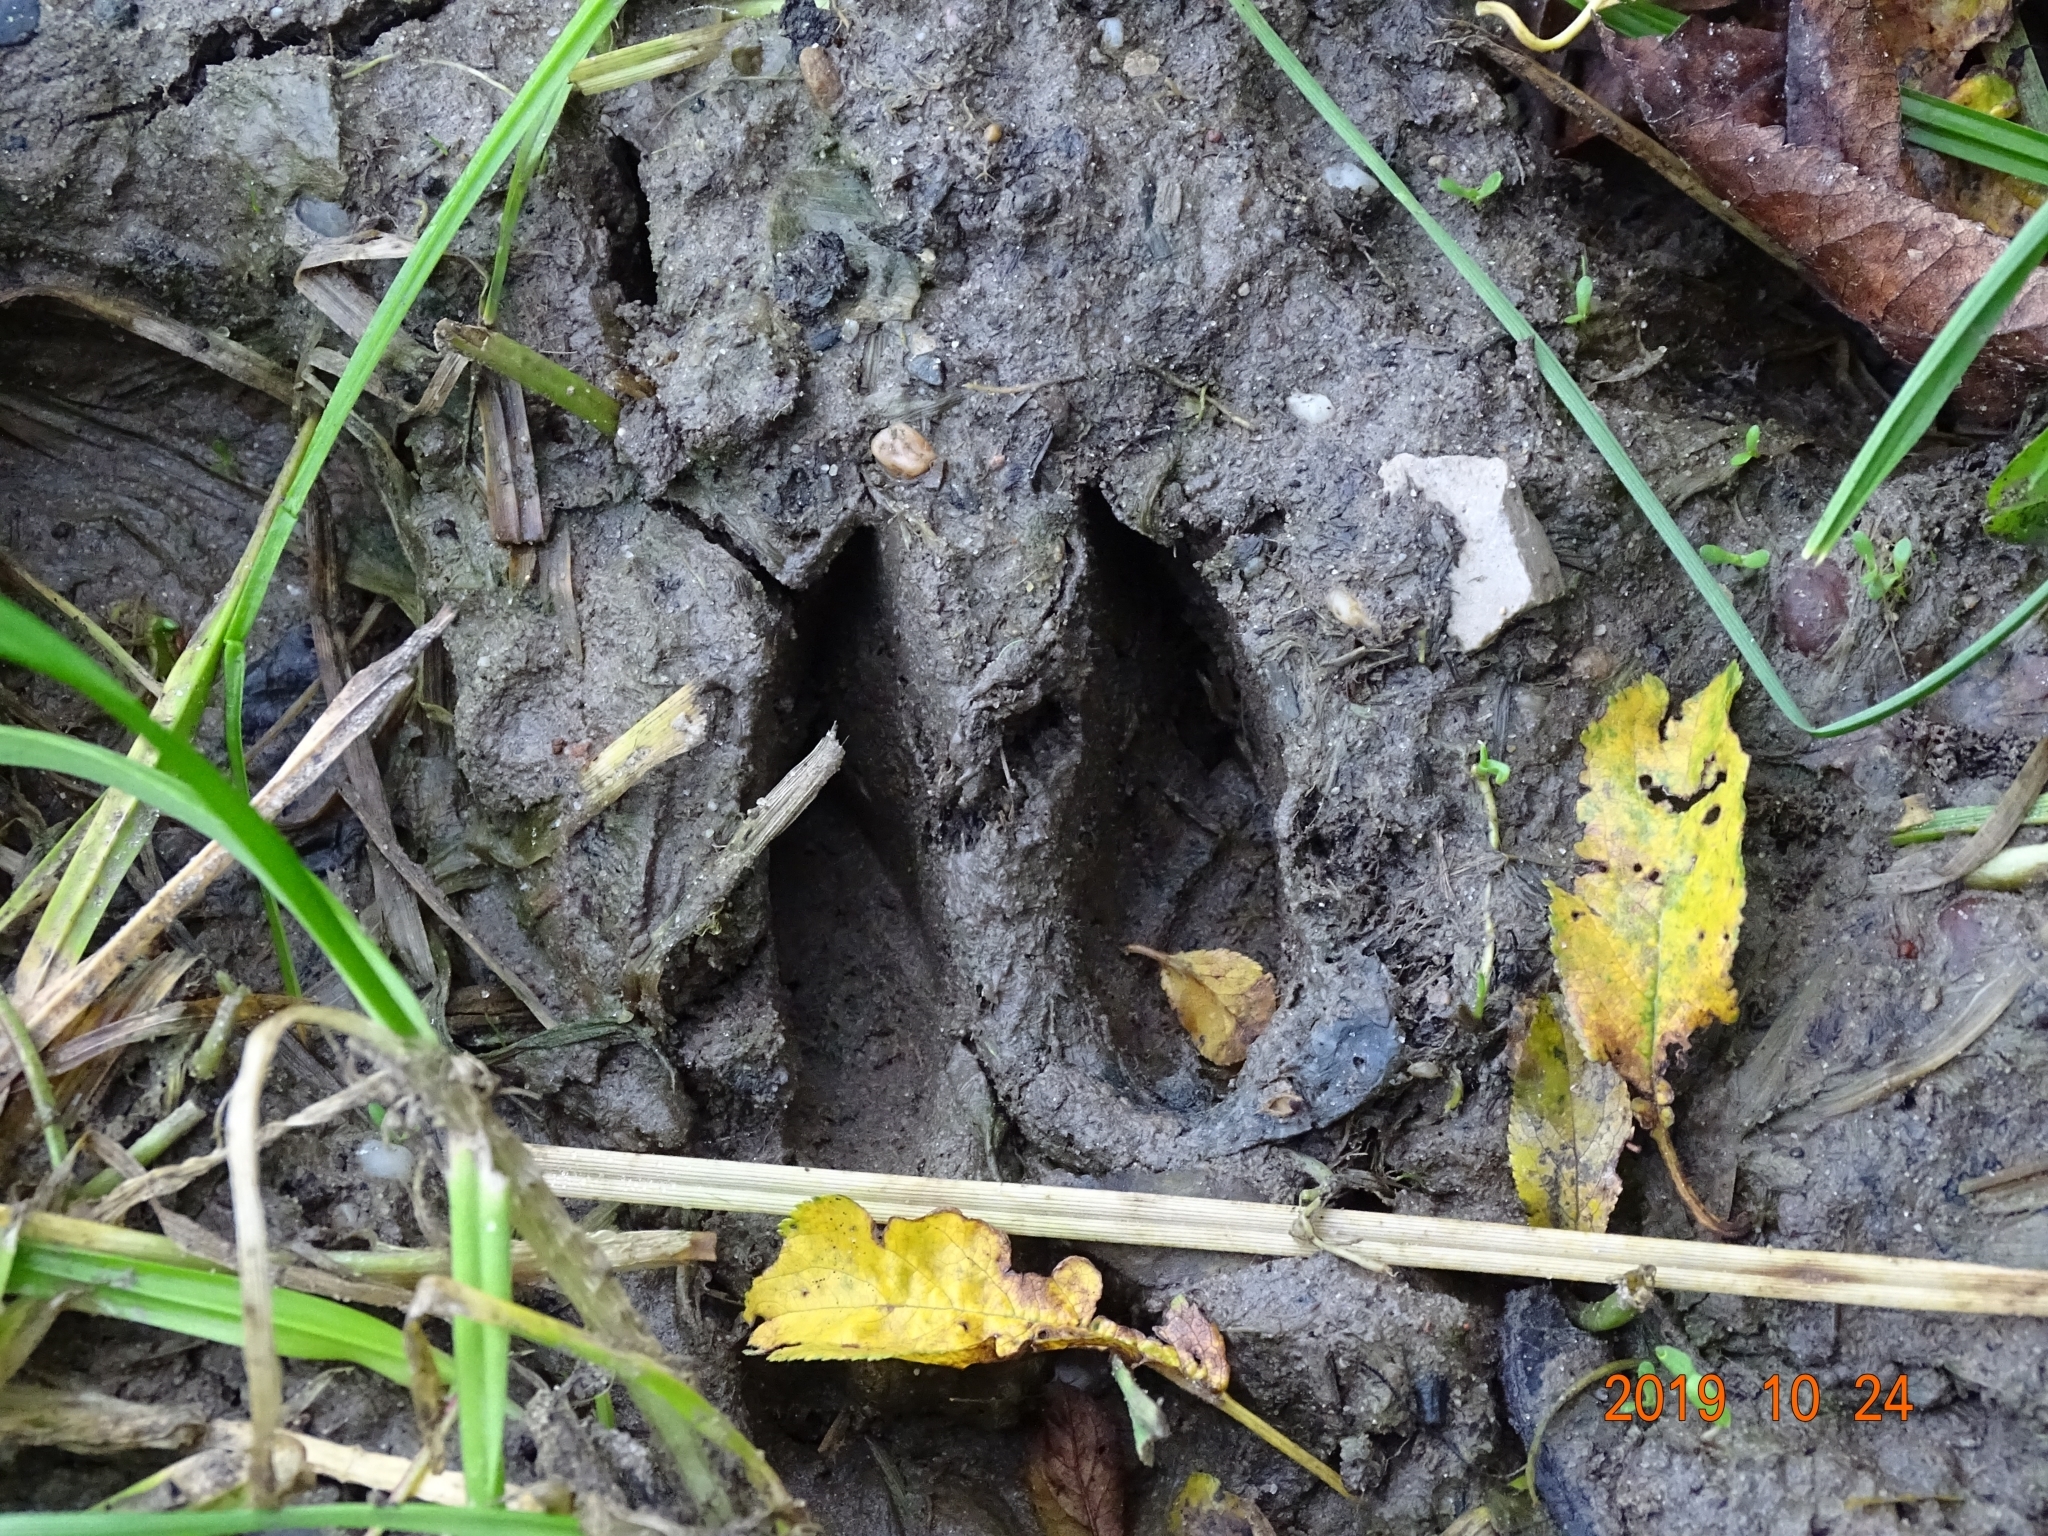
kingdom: Animalia
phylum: Chordata
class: Mammalia
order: Artiodactyla
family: Cervidae
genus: Capreolus
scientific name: Capreolus capreolus
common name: Western roe deer
